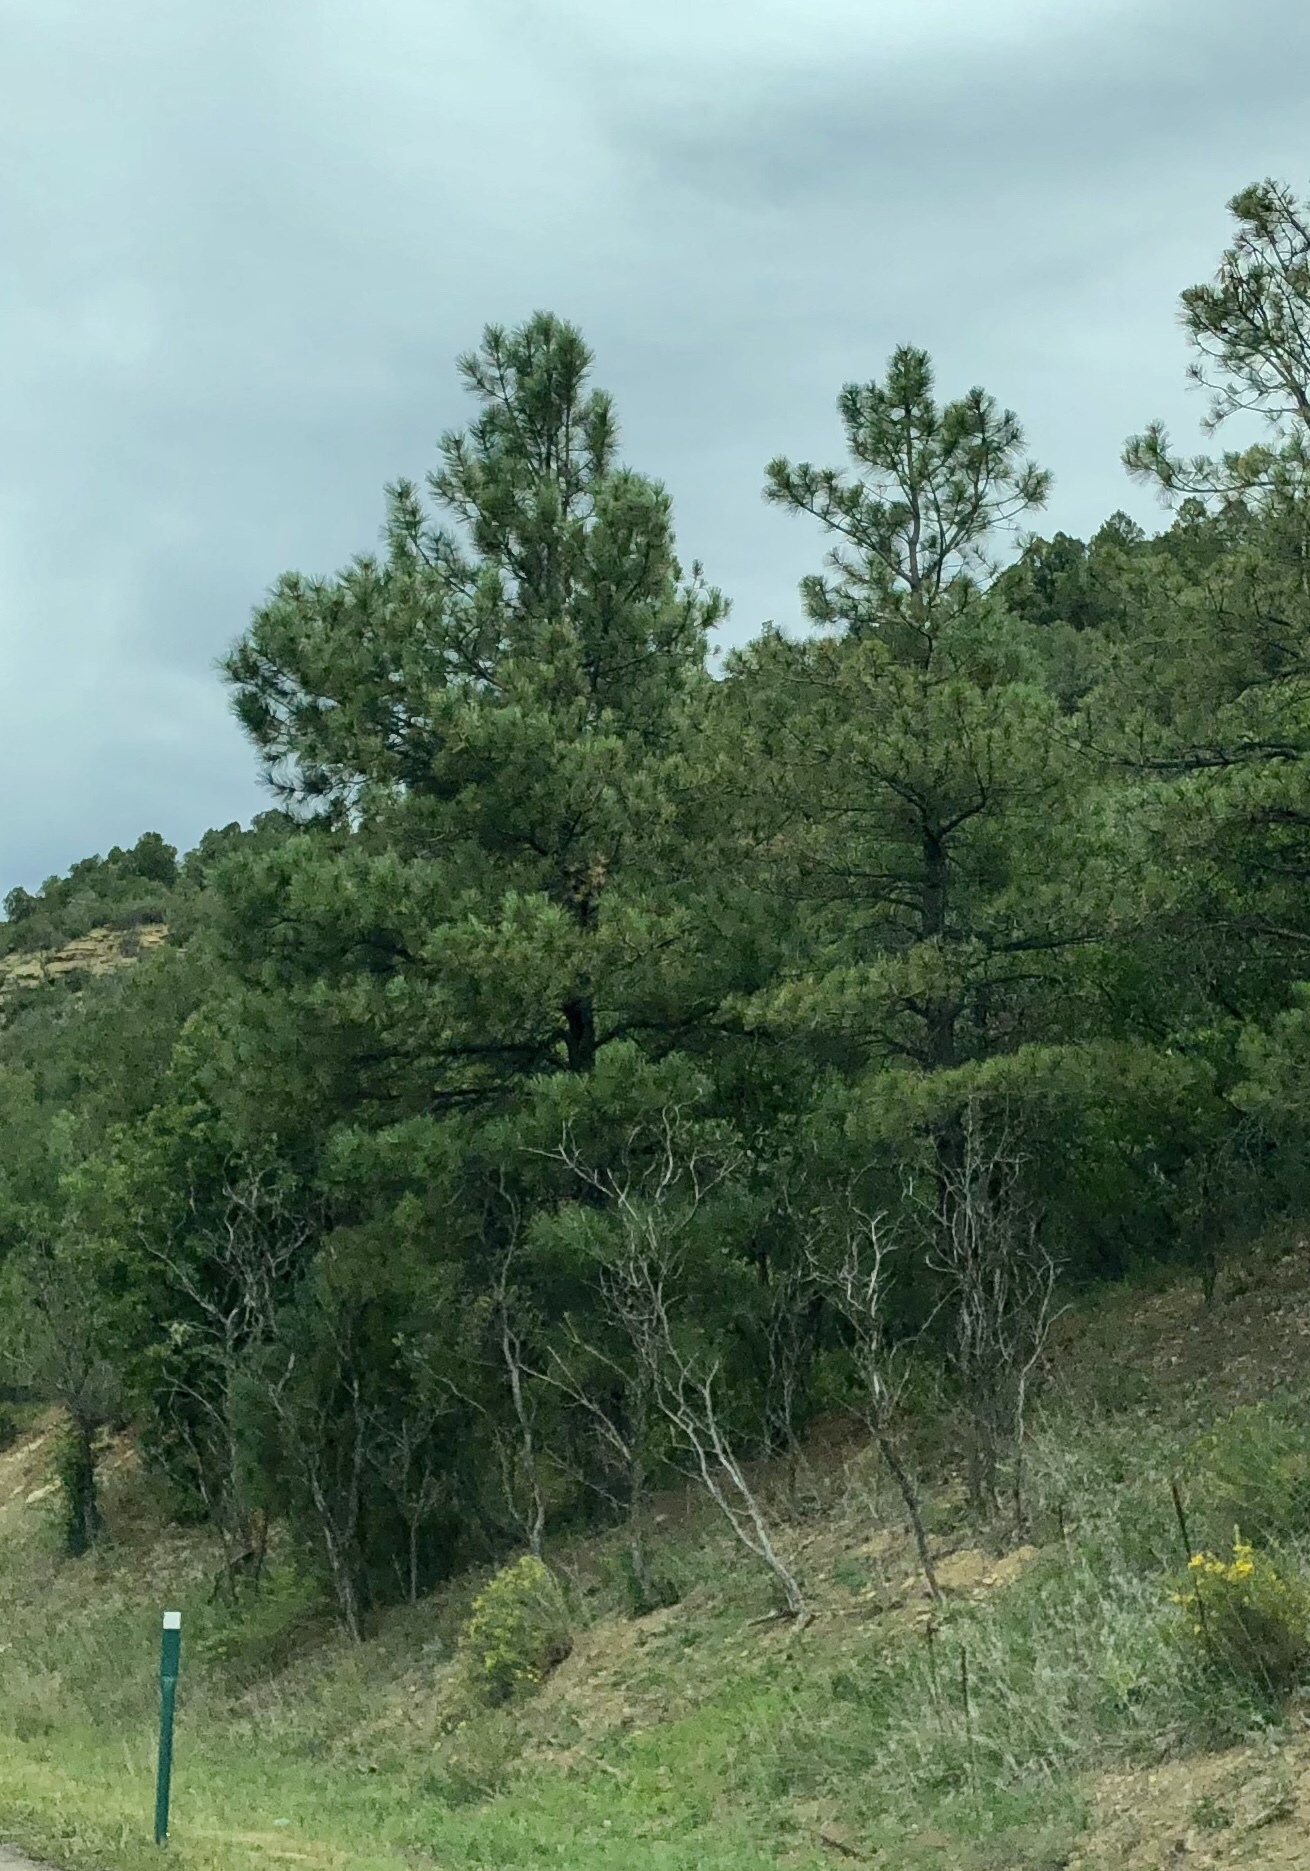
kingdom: Plantae
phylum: Tracheophyta
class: Pinopsida
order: Pinales
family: Pinaceae
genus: Pinus
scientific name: Pinus ponderosa
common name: Western yellow-pine
